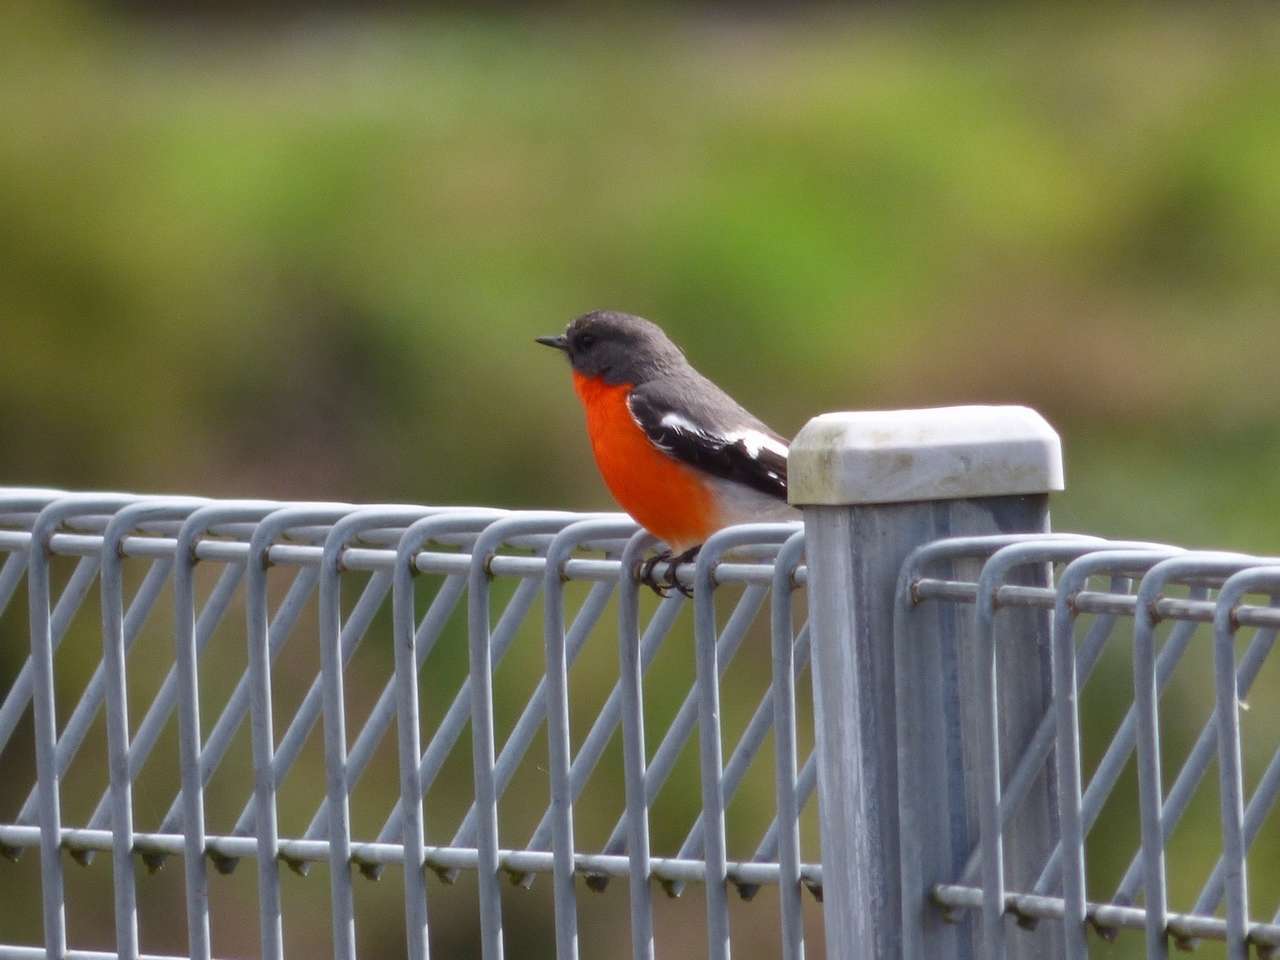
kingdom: Animalia
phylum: Chordata
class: Aves
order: Passeriformes
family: Petroicidae
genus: Petroica
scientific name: Petroica phoenicea
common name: Flame robin
